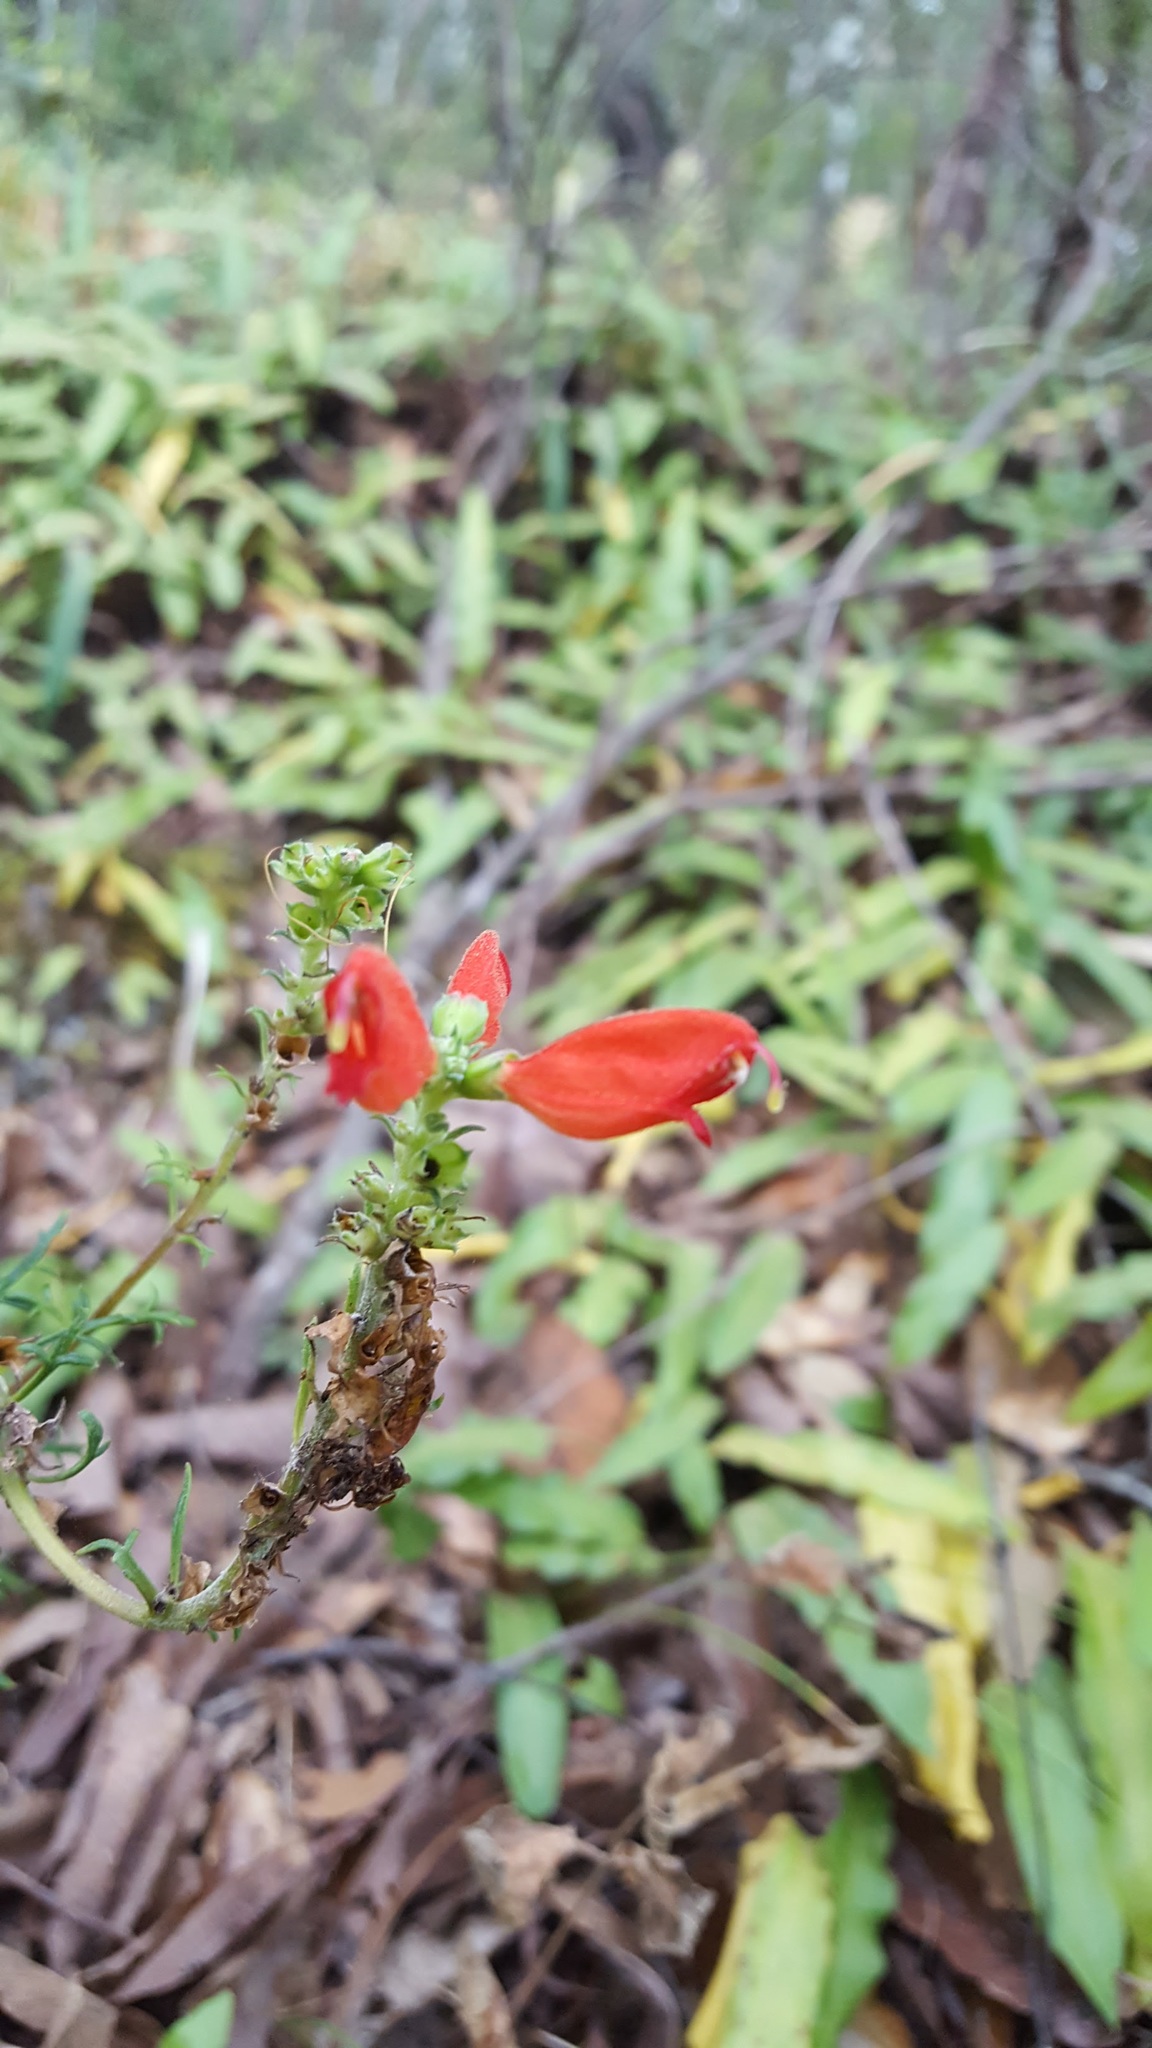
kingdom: Plantae
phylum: Tracheophyta
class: Magnoliopsida
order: Lamiales
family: Orobanchaceae
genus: Lamourouxia
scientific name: Lamourouxia multifida
